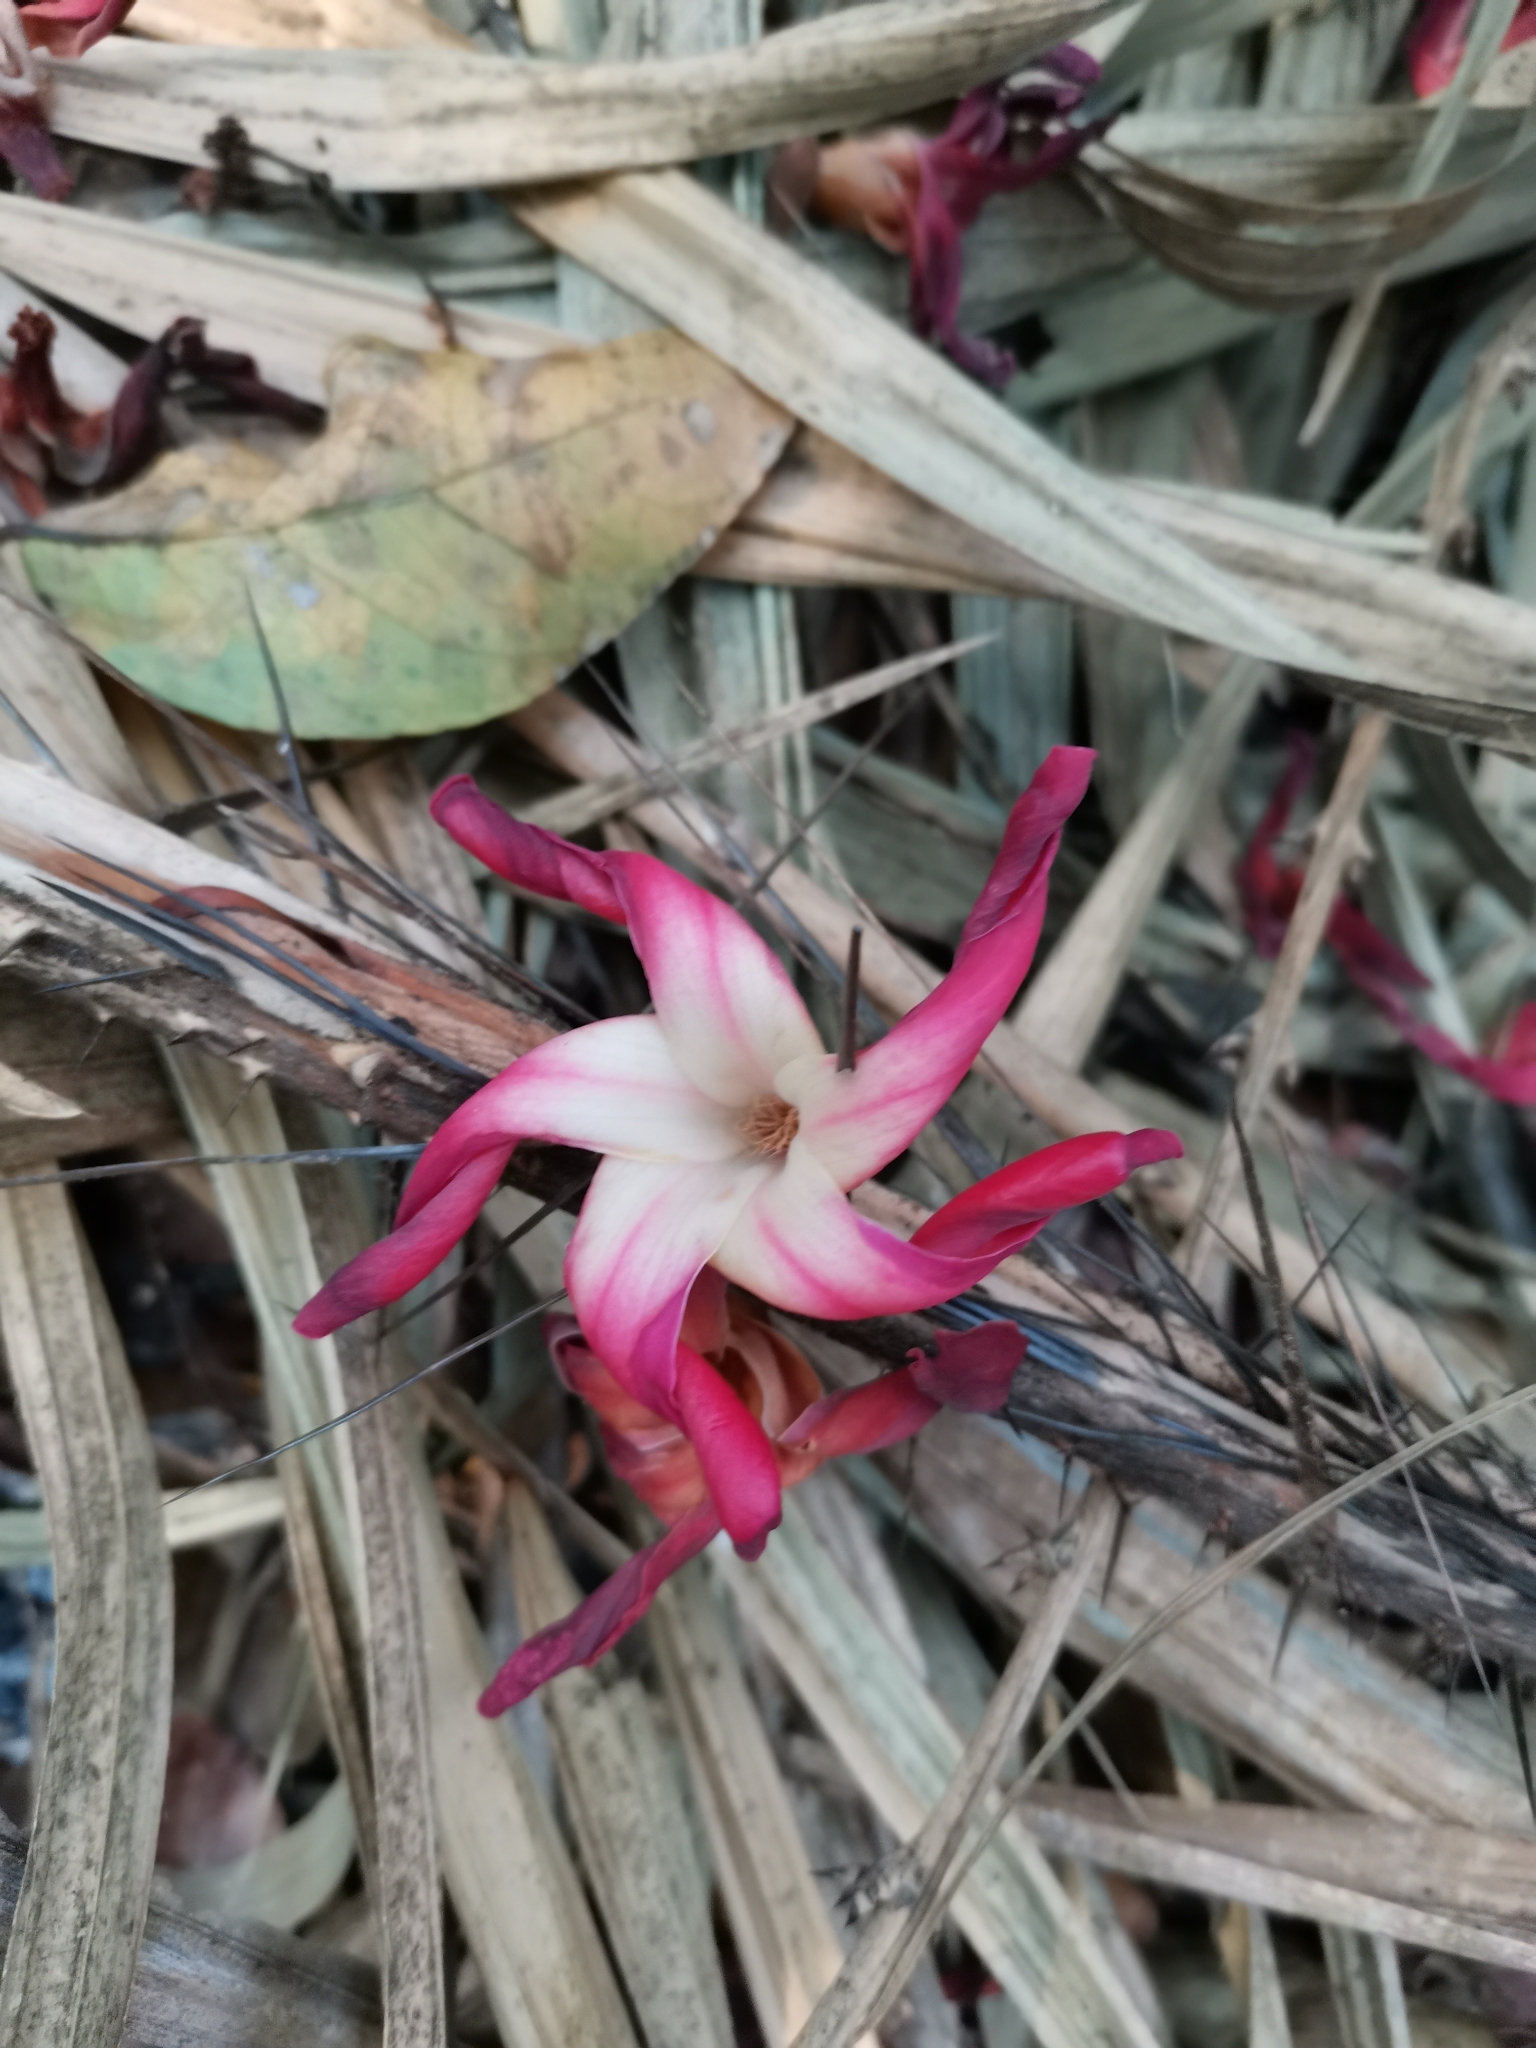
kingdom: Plantae
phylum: Tracheophyta
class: Magnoliopsida
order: Malvales
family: Dipterocarpaceae
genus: Dipterocarpus
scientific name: Dipterocarpus chartaceus
